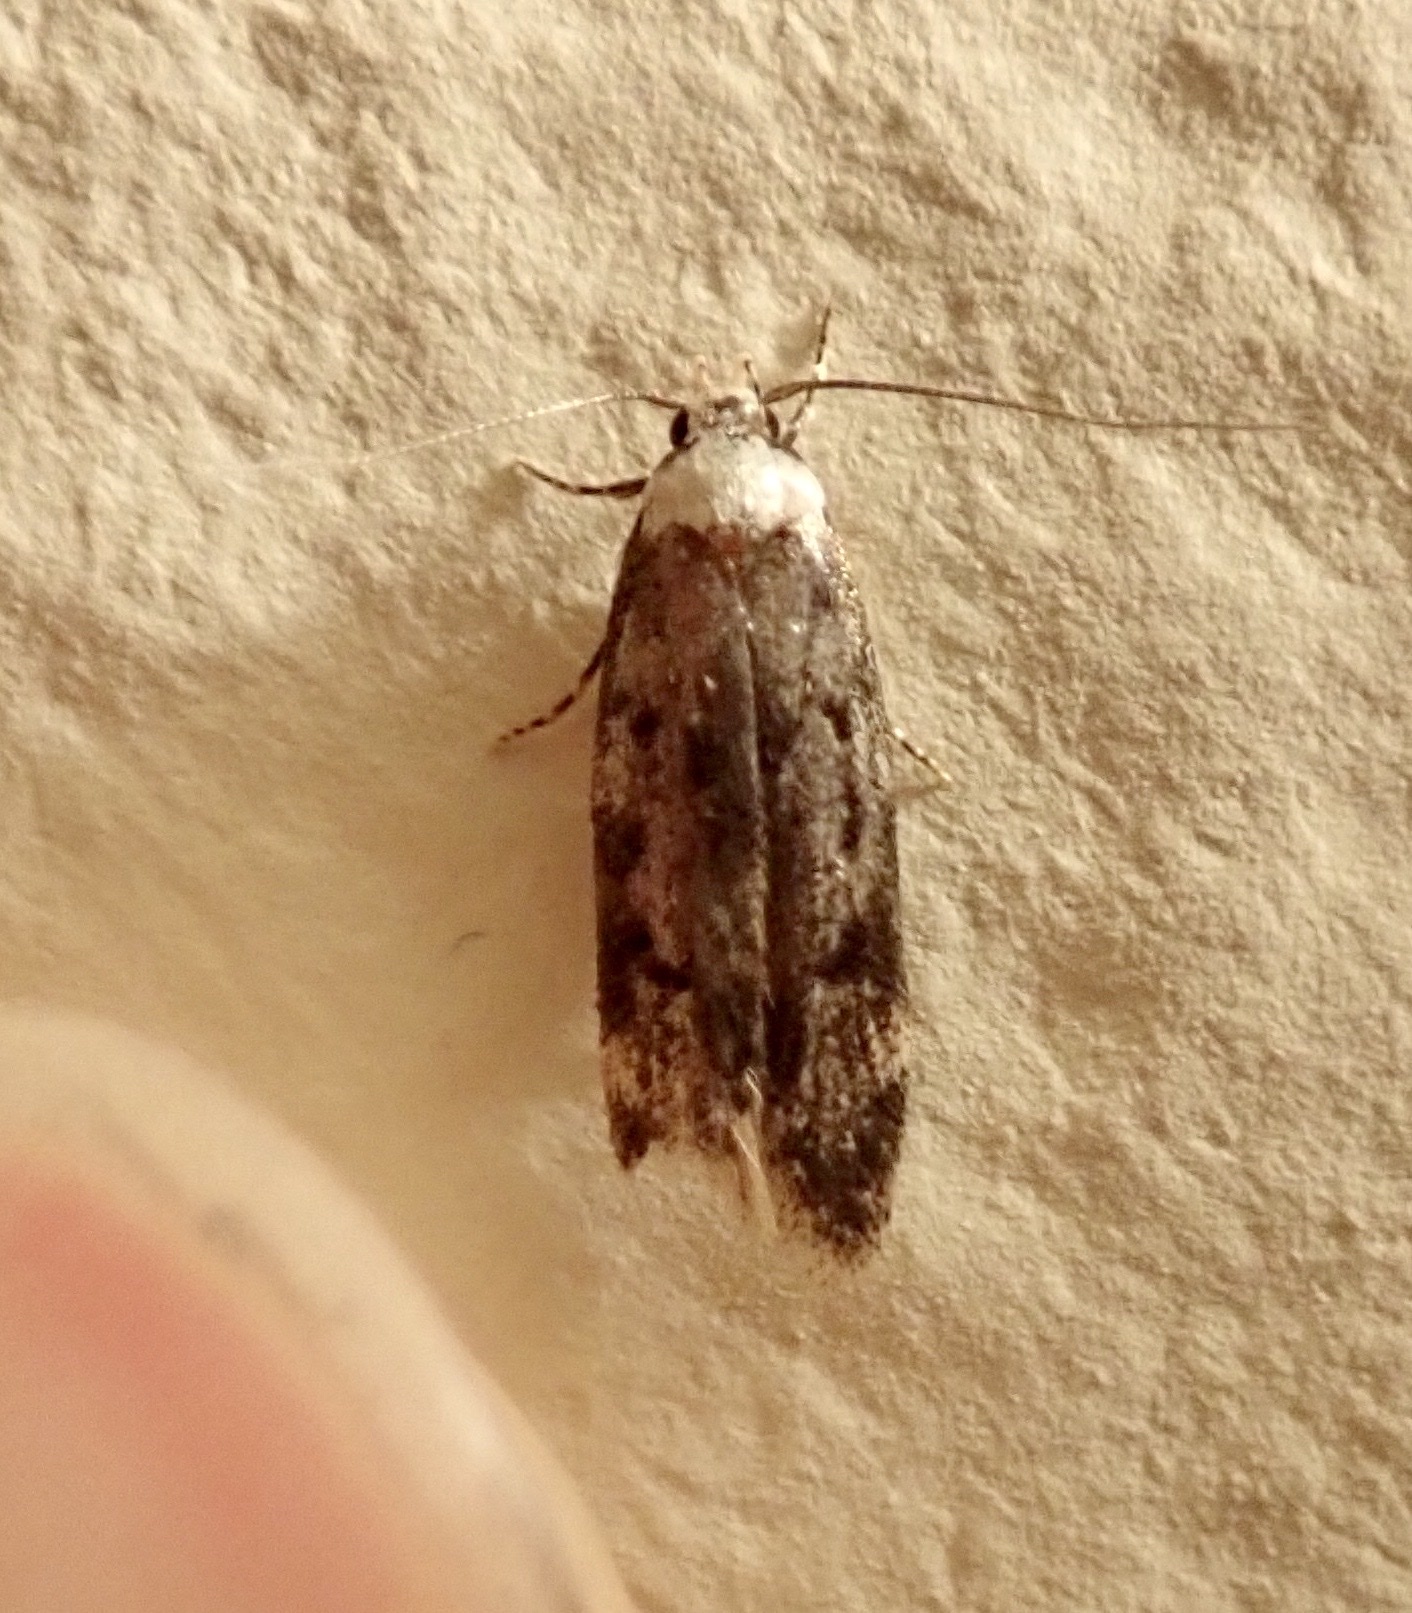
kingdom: Animalia
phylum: Arthropoda
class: Insecta
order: Lepidoptera
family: Oecophoridae
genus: Endrosis
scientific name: Endrosis sarcitrella
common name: White-shouldered house moth
